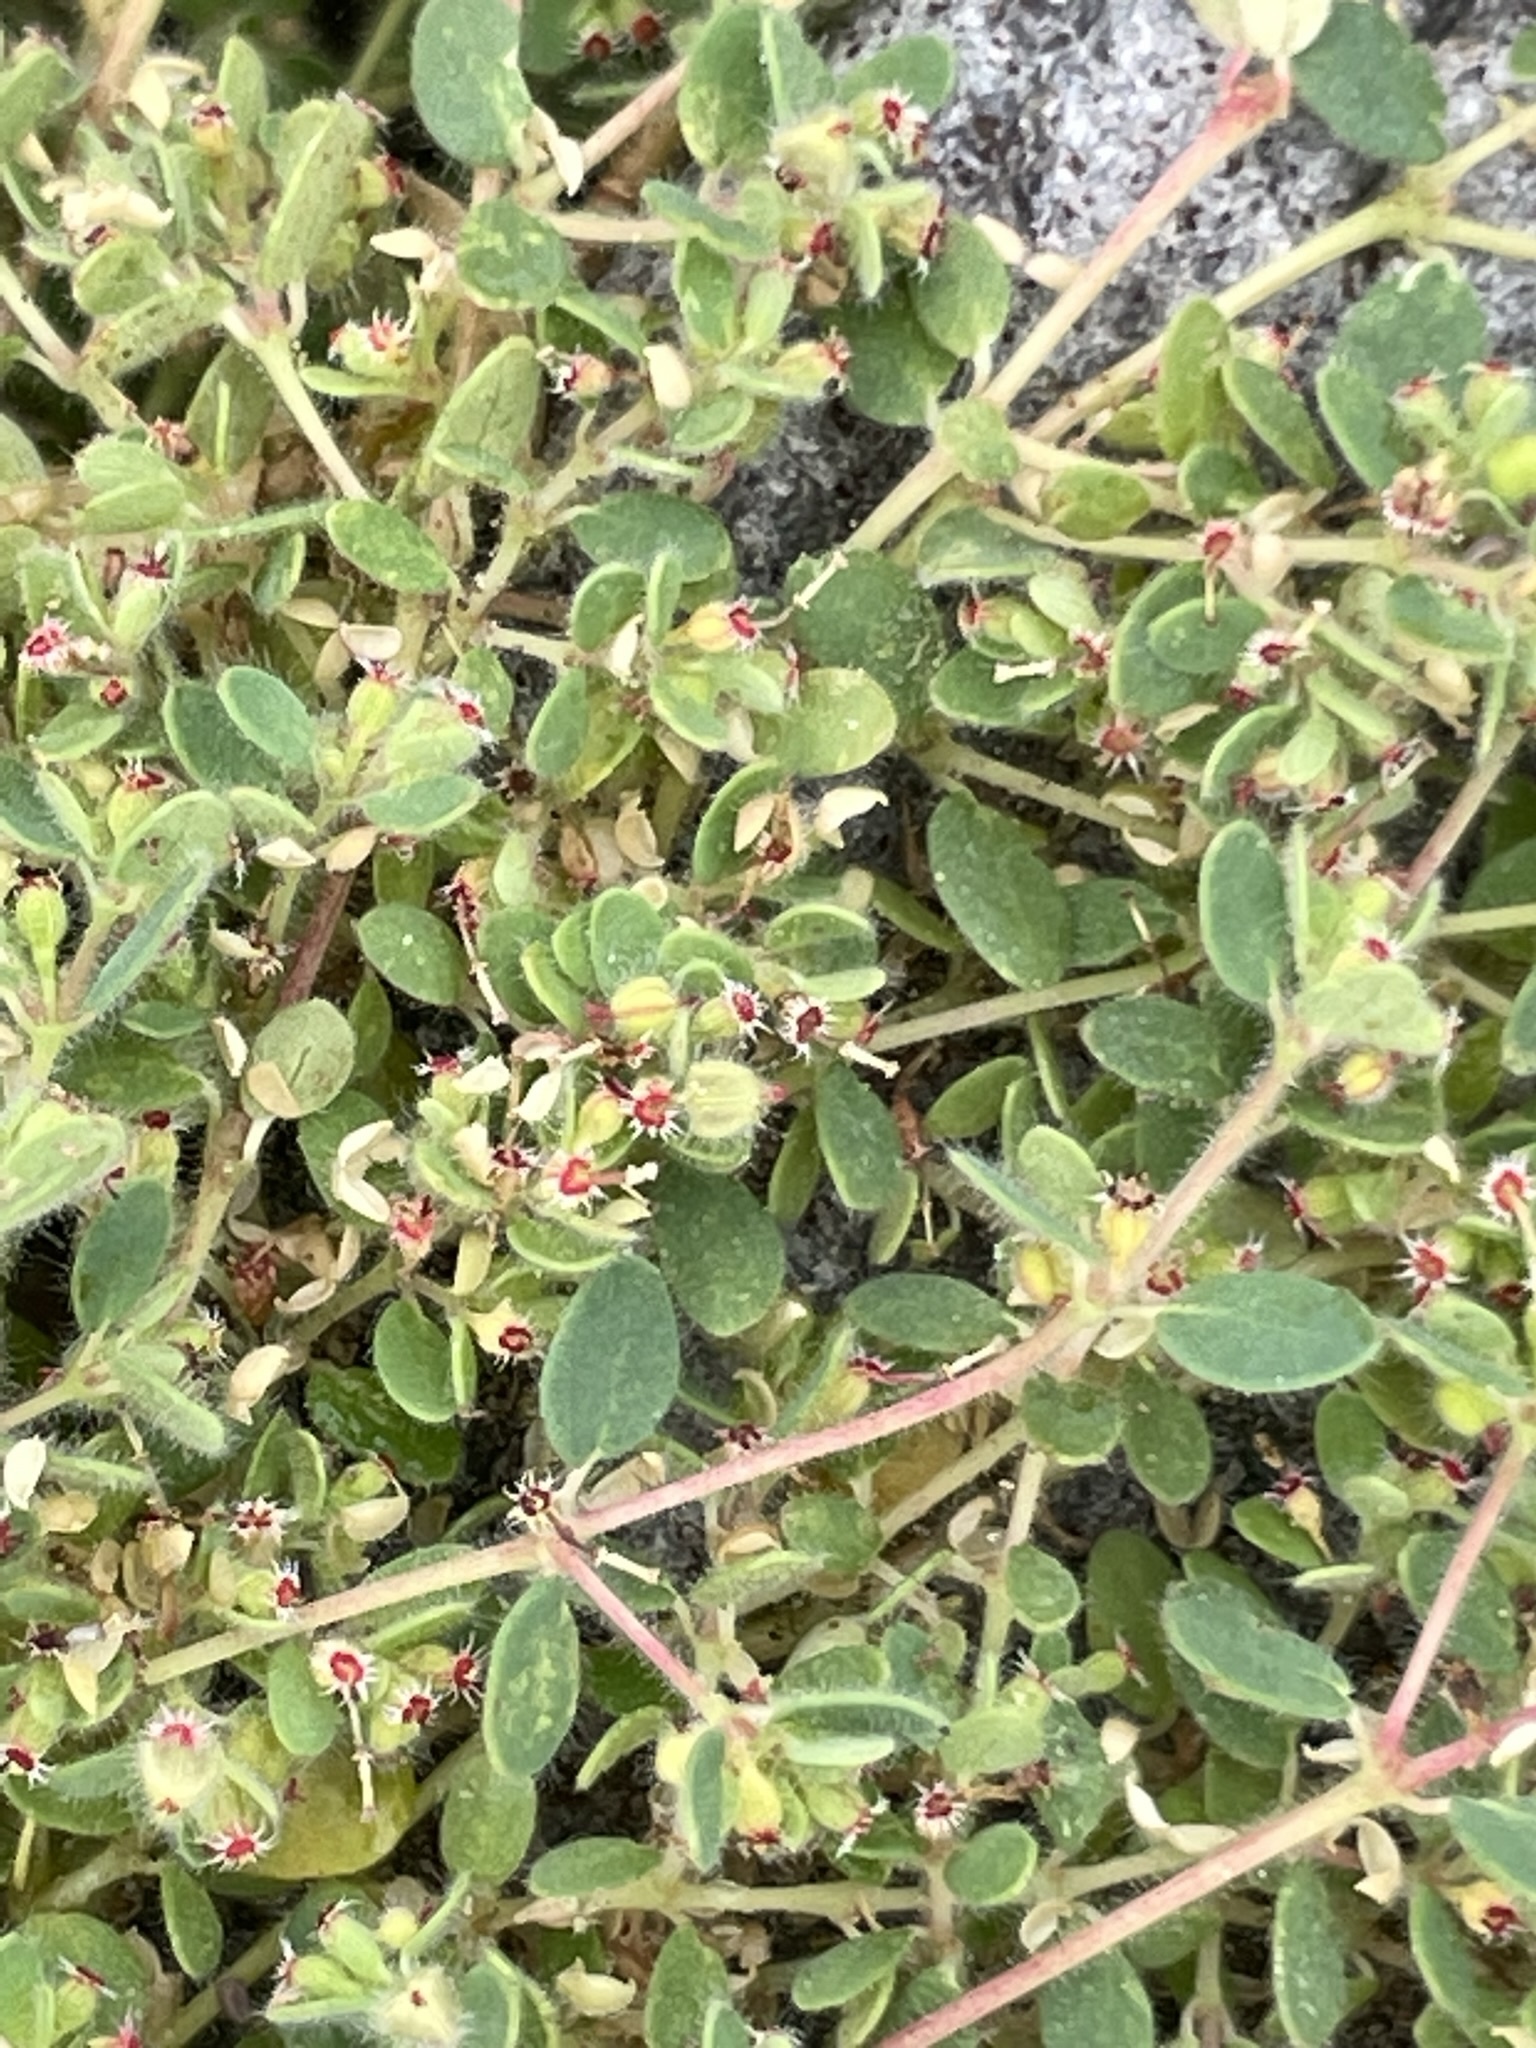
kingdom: Plantae
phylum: Tracheophyta
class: Magnoliopsida
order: Malpighiales
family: Euphorbiaceae
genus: Euphorbia
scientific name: Euphorbia setiloba
